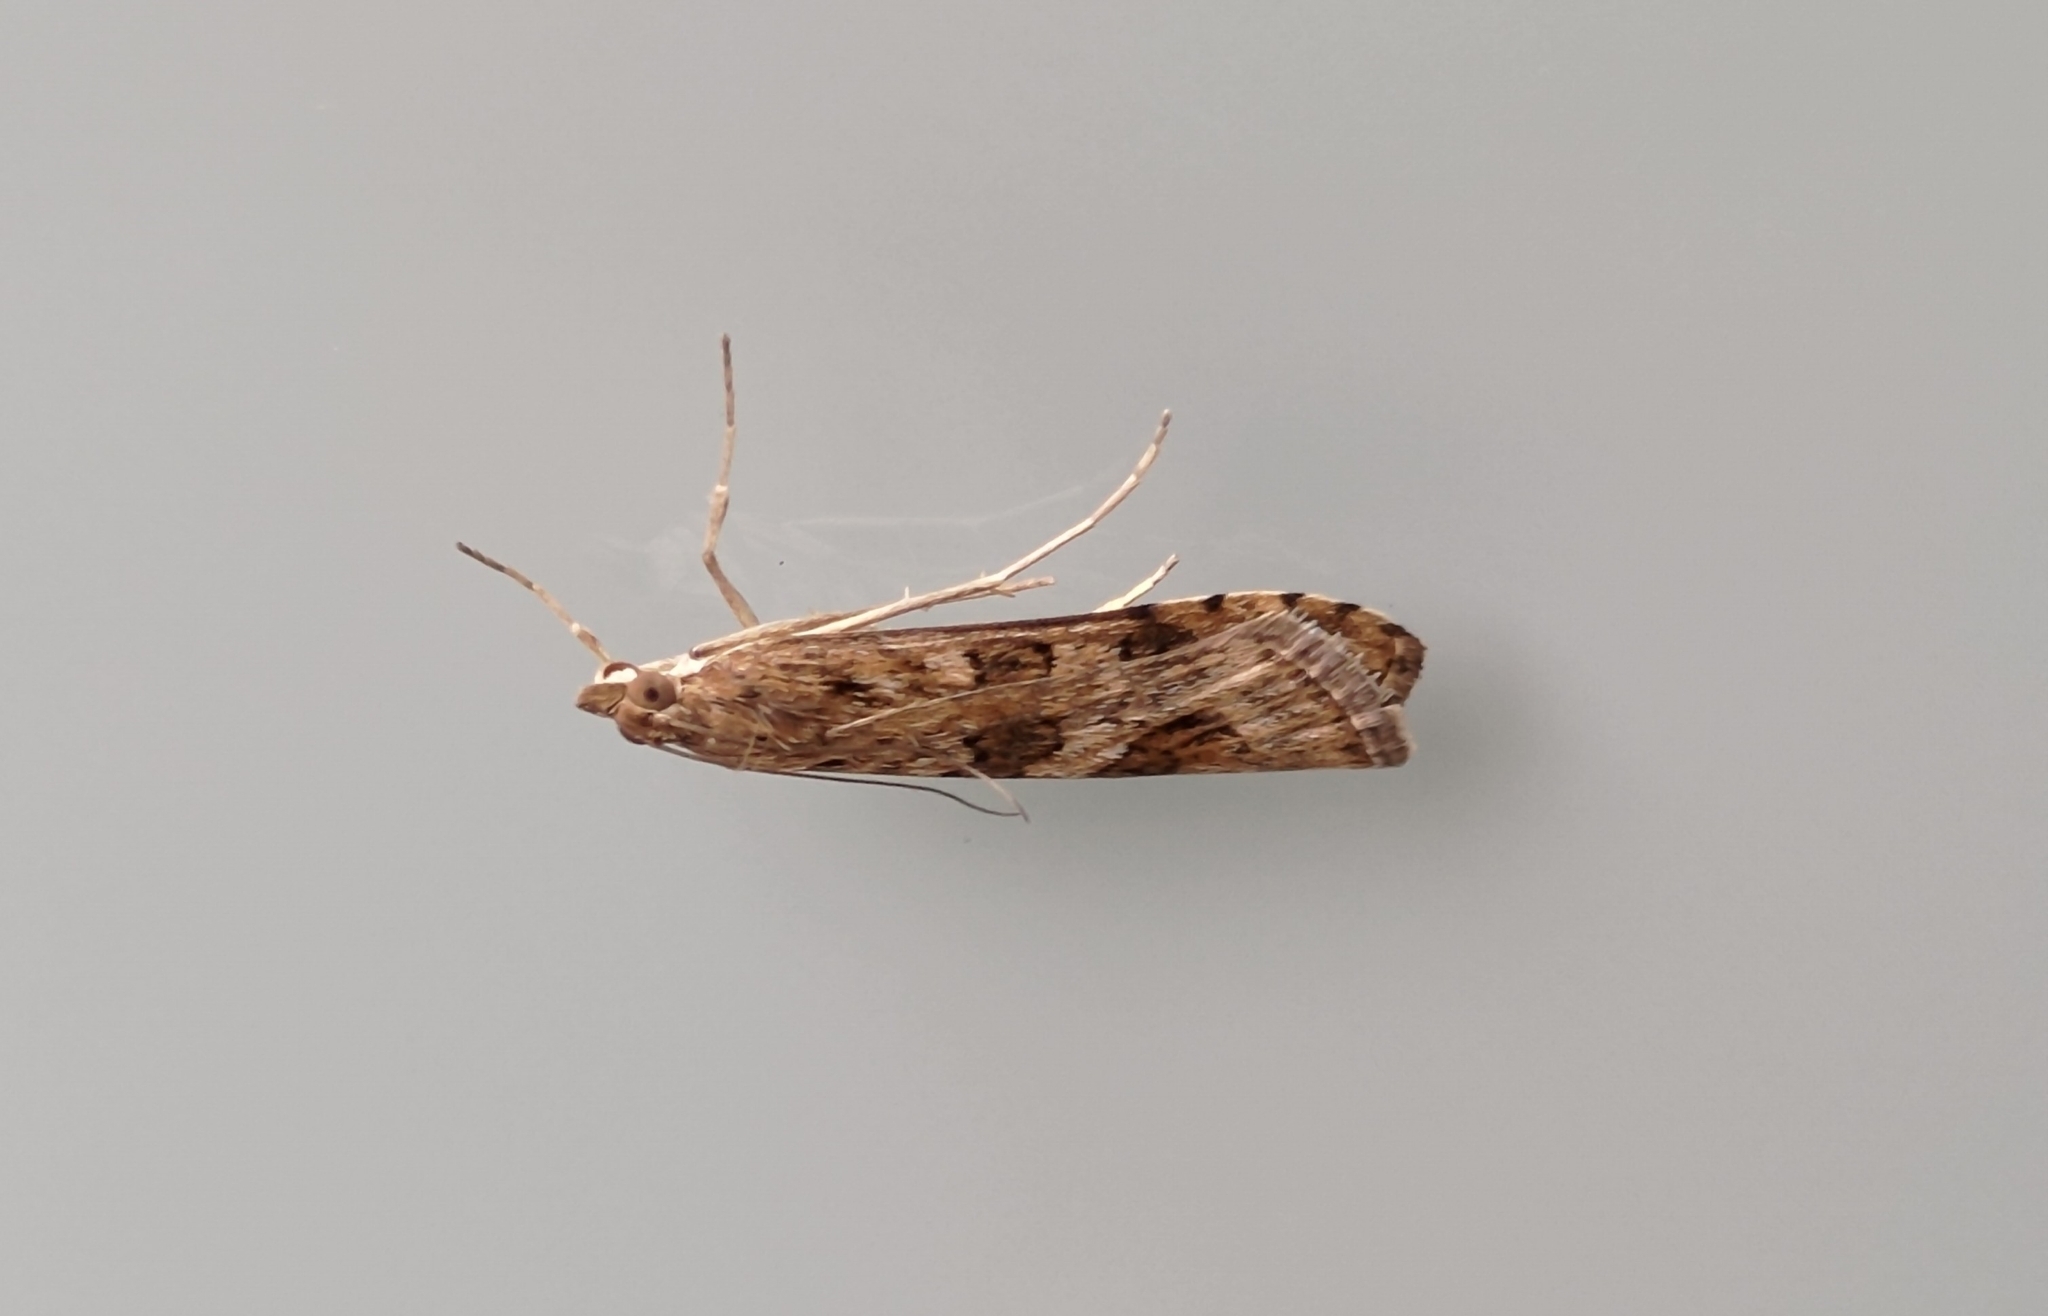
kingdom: Animalia
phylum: Arthropoda
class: Insecta
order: Lepidoptera
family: Crambidae
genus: Nomophila
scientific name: Nomophila noctuella
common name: Rush veneer
